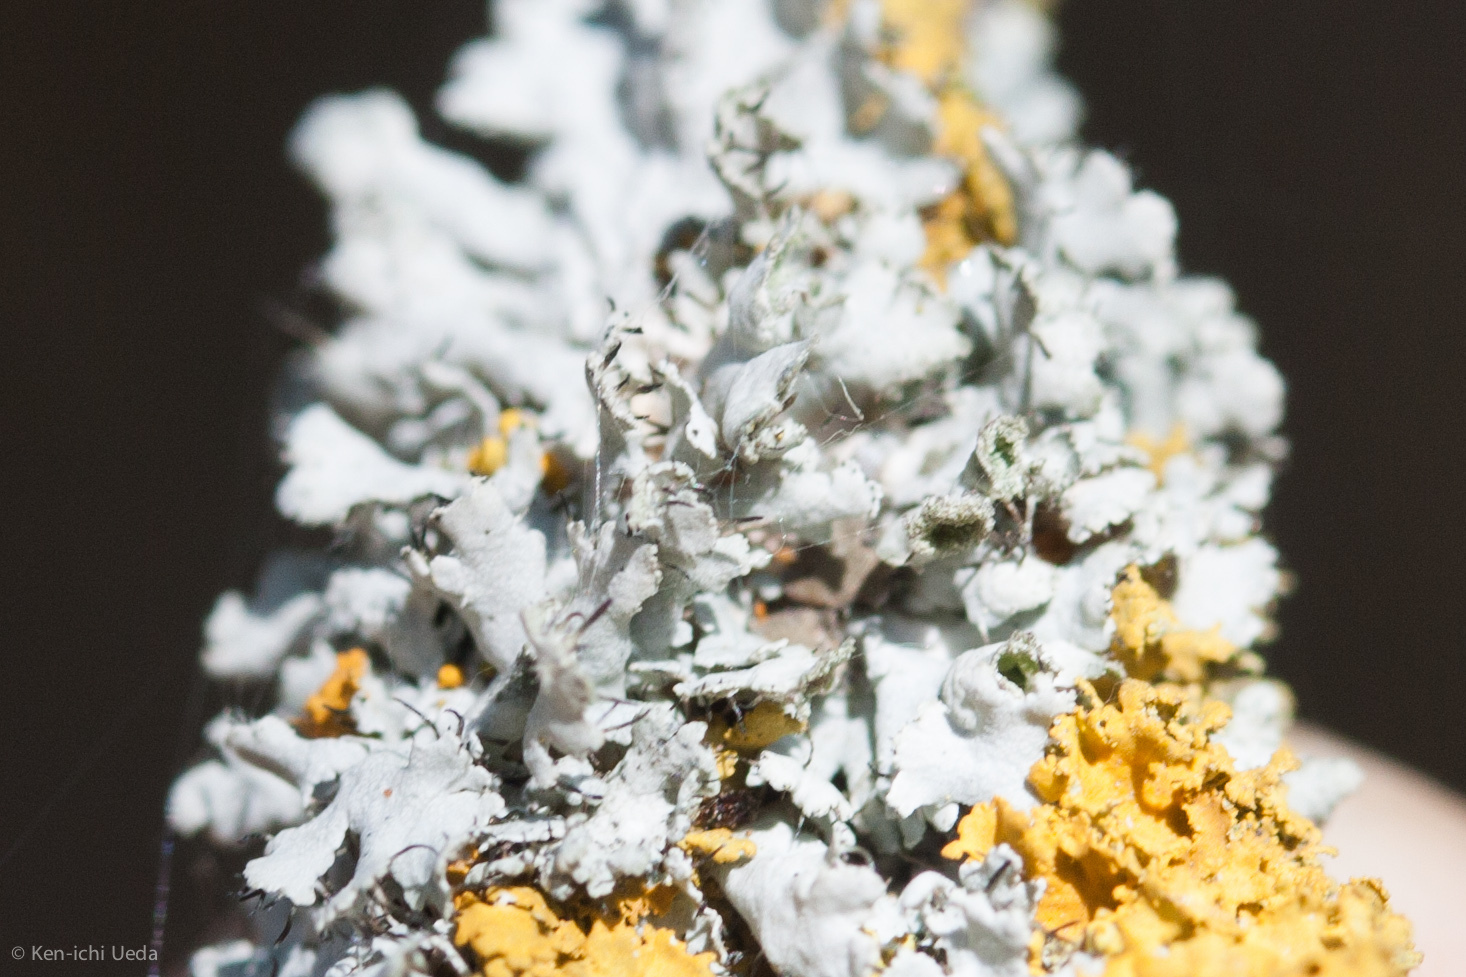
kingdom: Fungi
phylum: Ascomycota
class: Lecanoromycetes
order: Caliciales
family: Physciaceae
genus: Physcia
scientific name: Physcia adscendens
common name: Hooded rosette lichen
